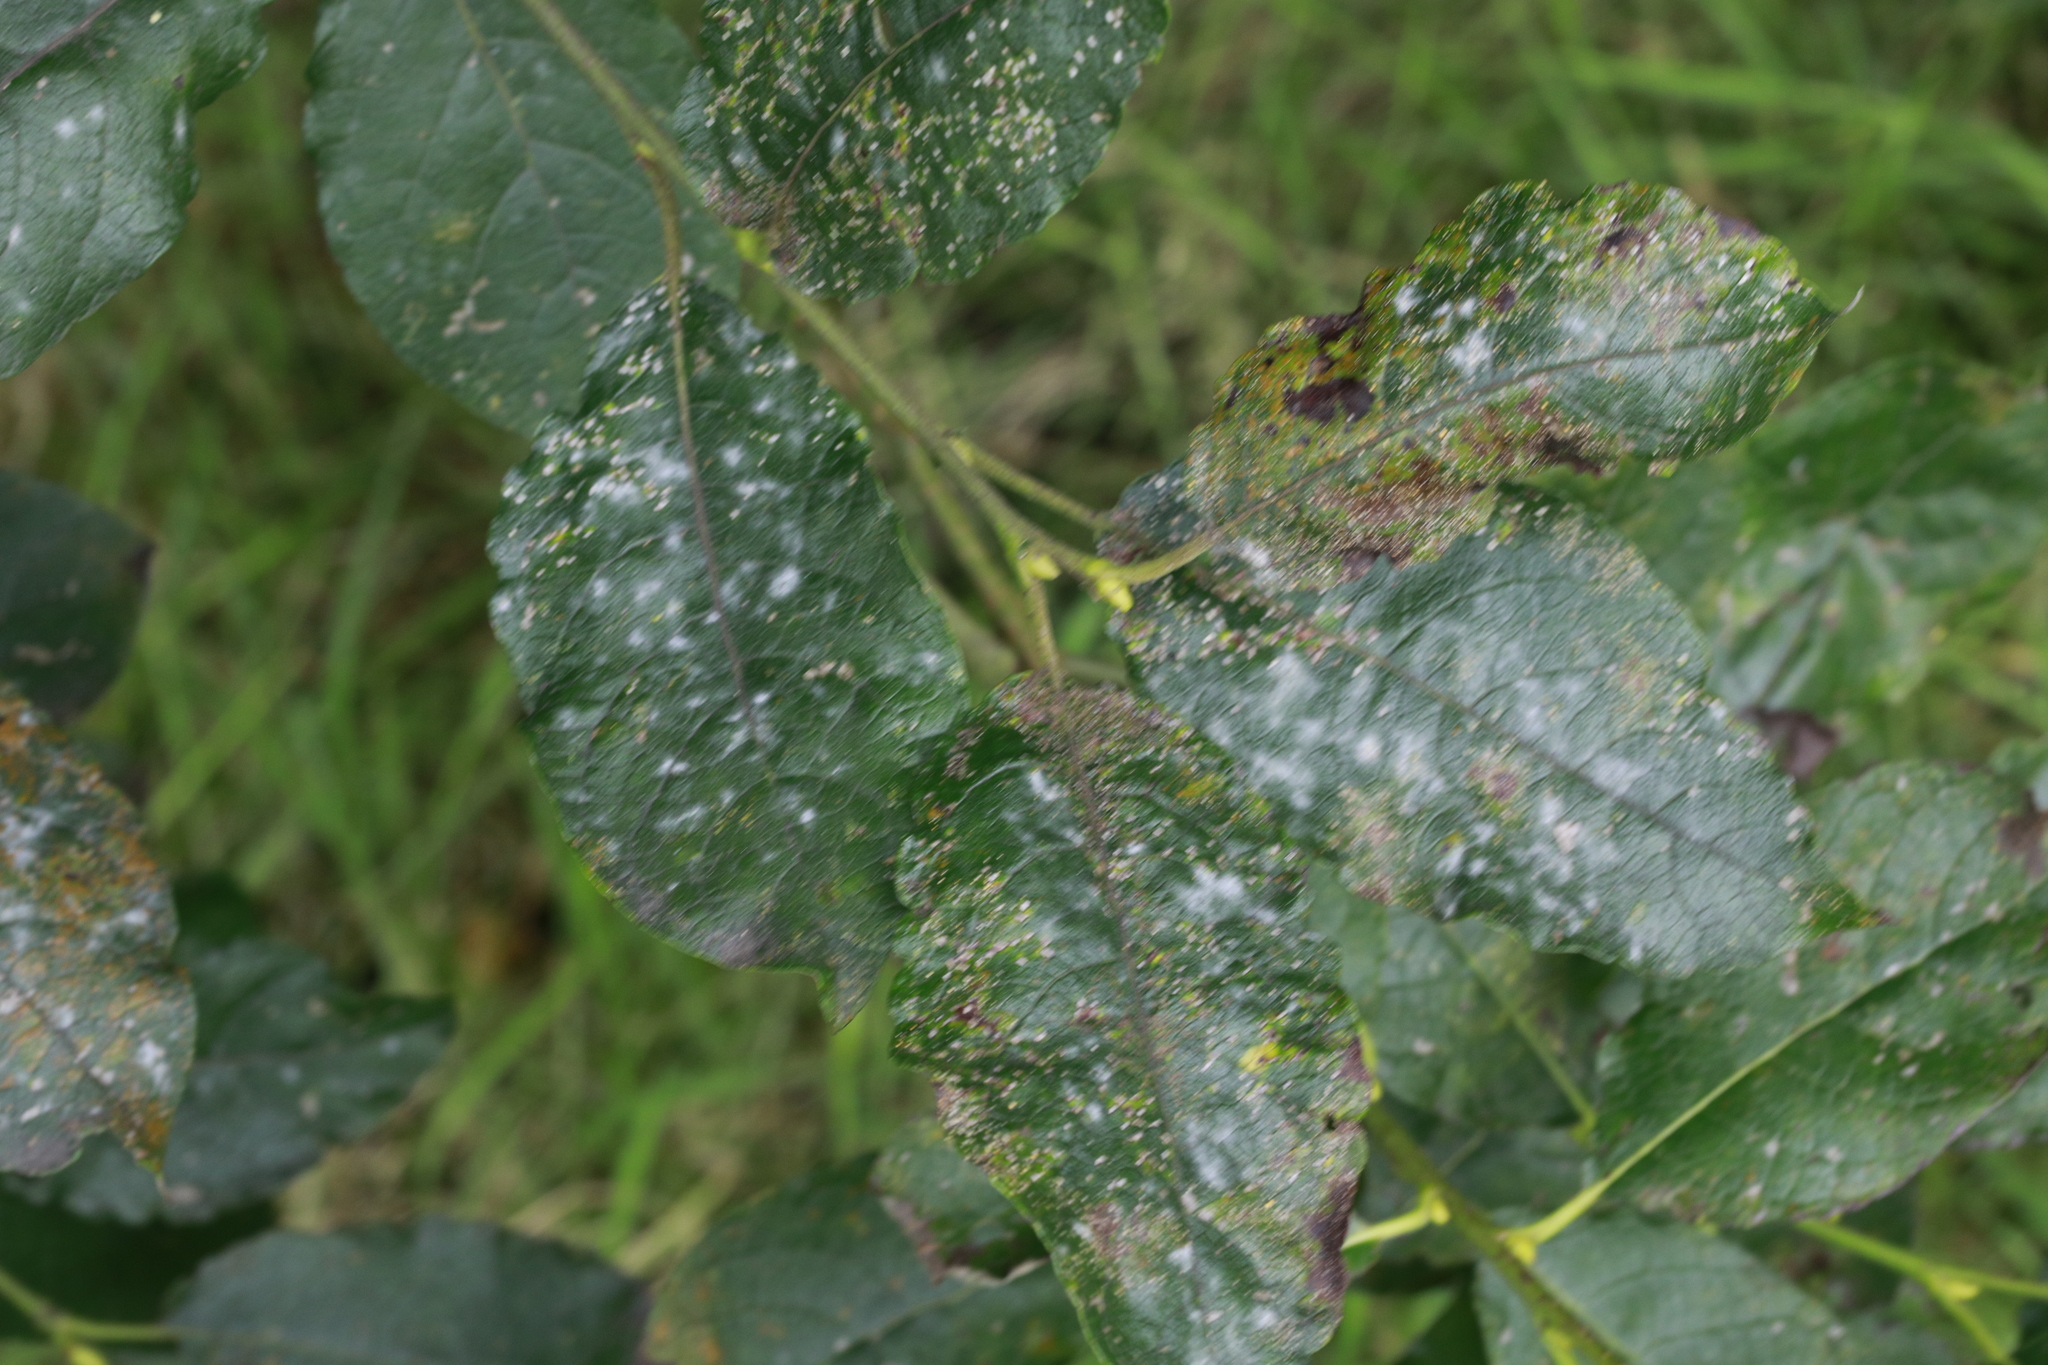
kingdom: Fungi
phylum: Ascomycota
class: Leotiomycetes
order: Helotiales
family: Erysiphaceae
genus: Erysiphe
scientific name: Erysiphe capreae
